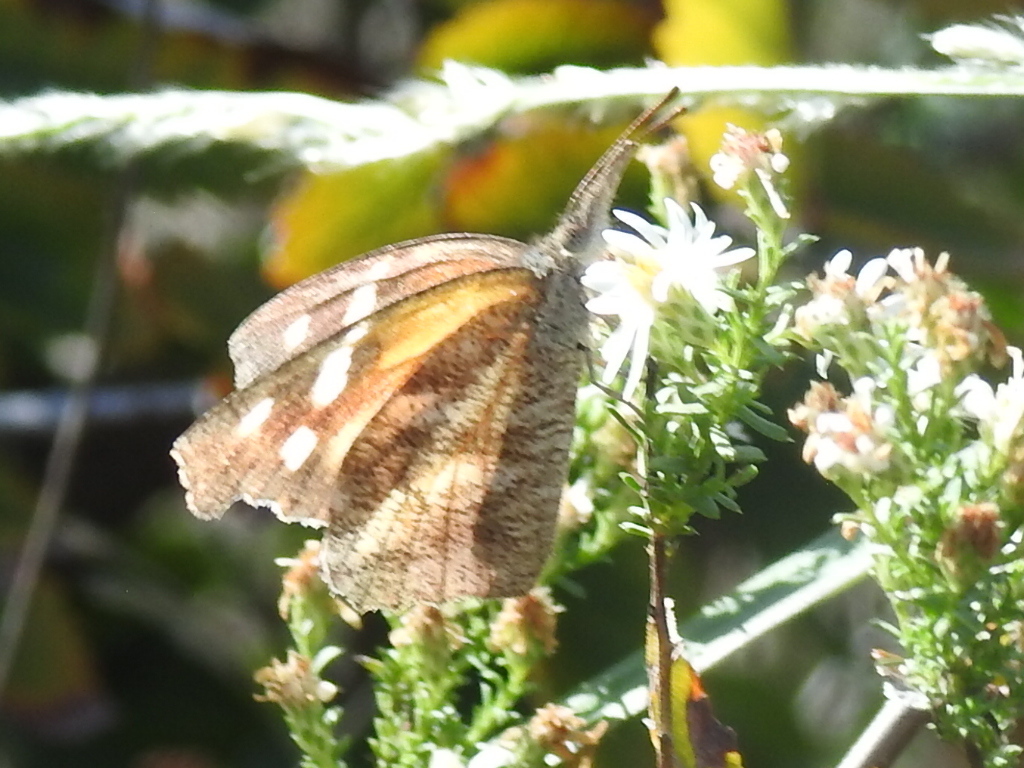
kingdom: Animalia
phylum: Arthropoda
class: Insecta
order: Lepidoptera
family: Nymphalidae
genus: Libytheana
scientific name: Libytheana carinenta
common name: American snout
